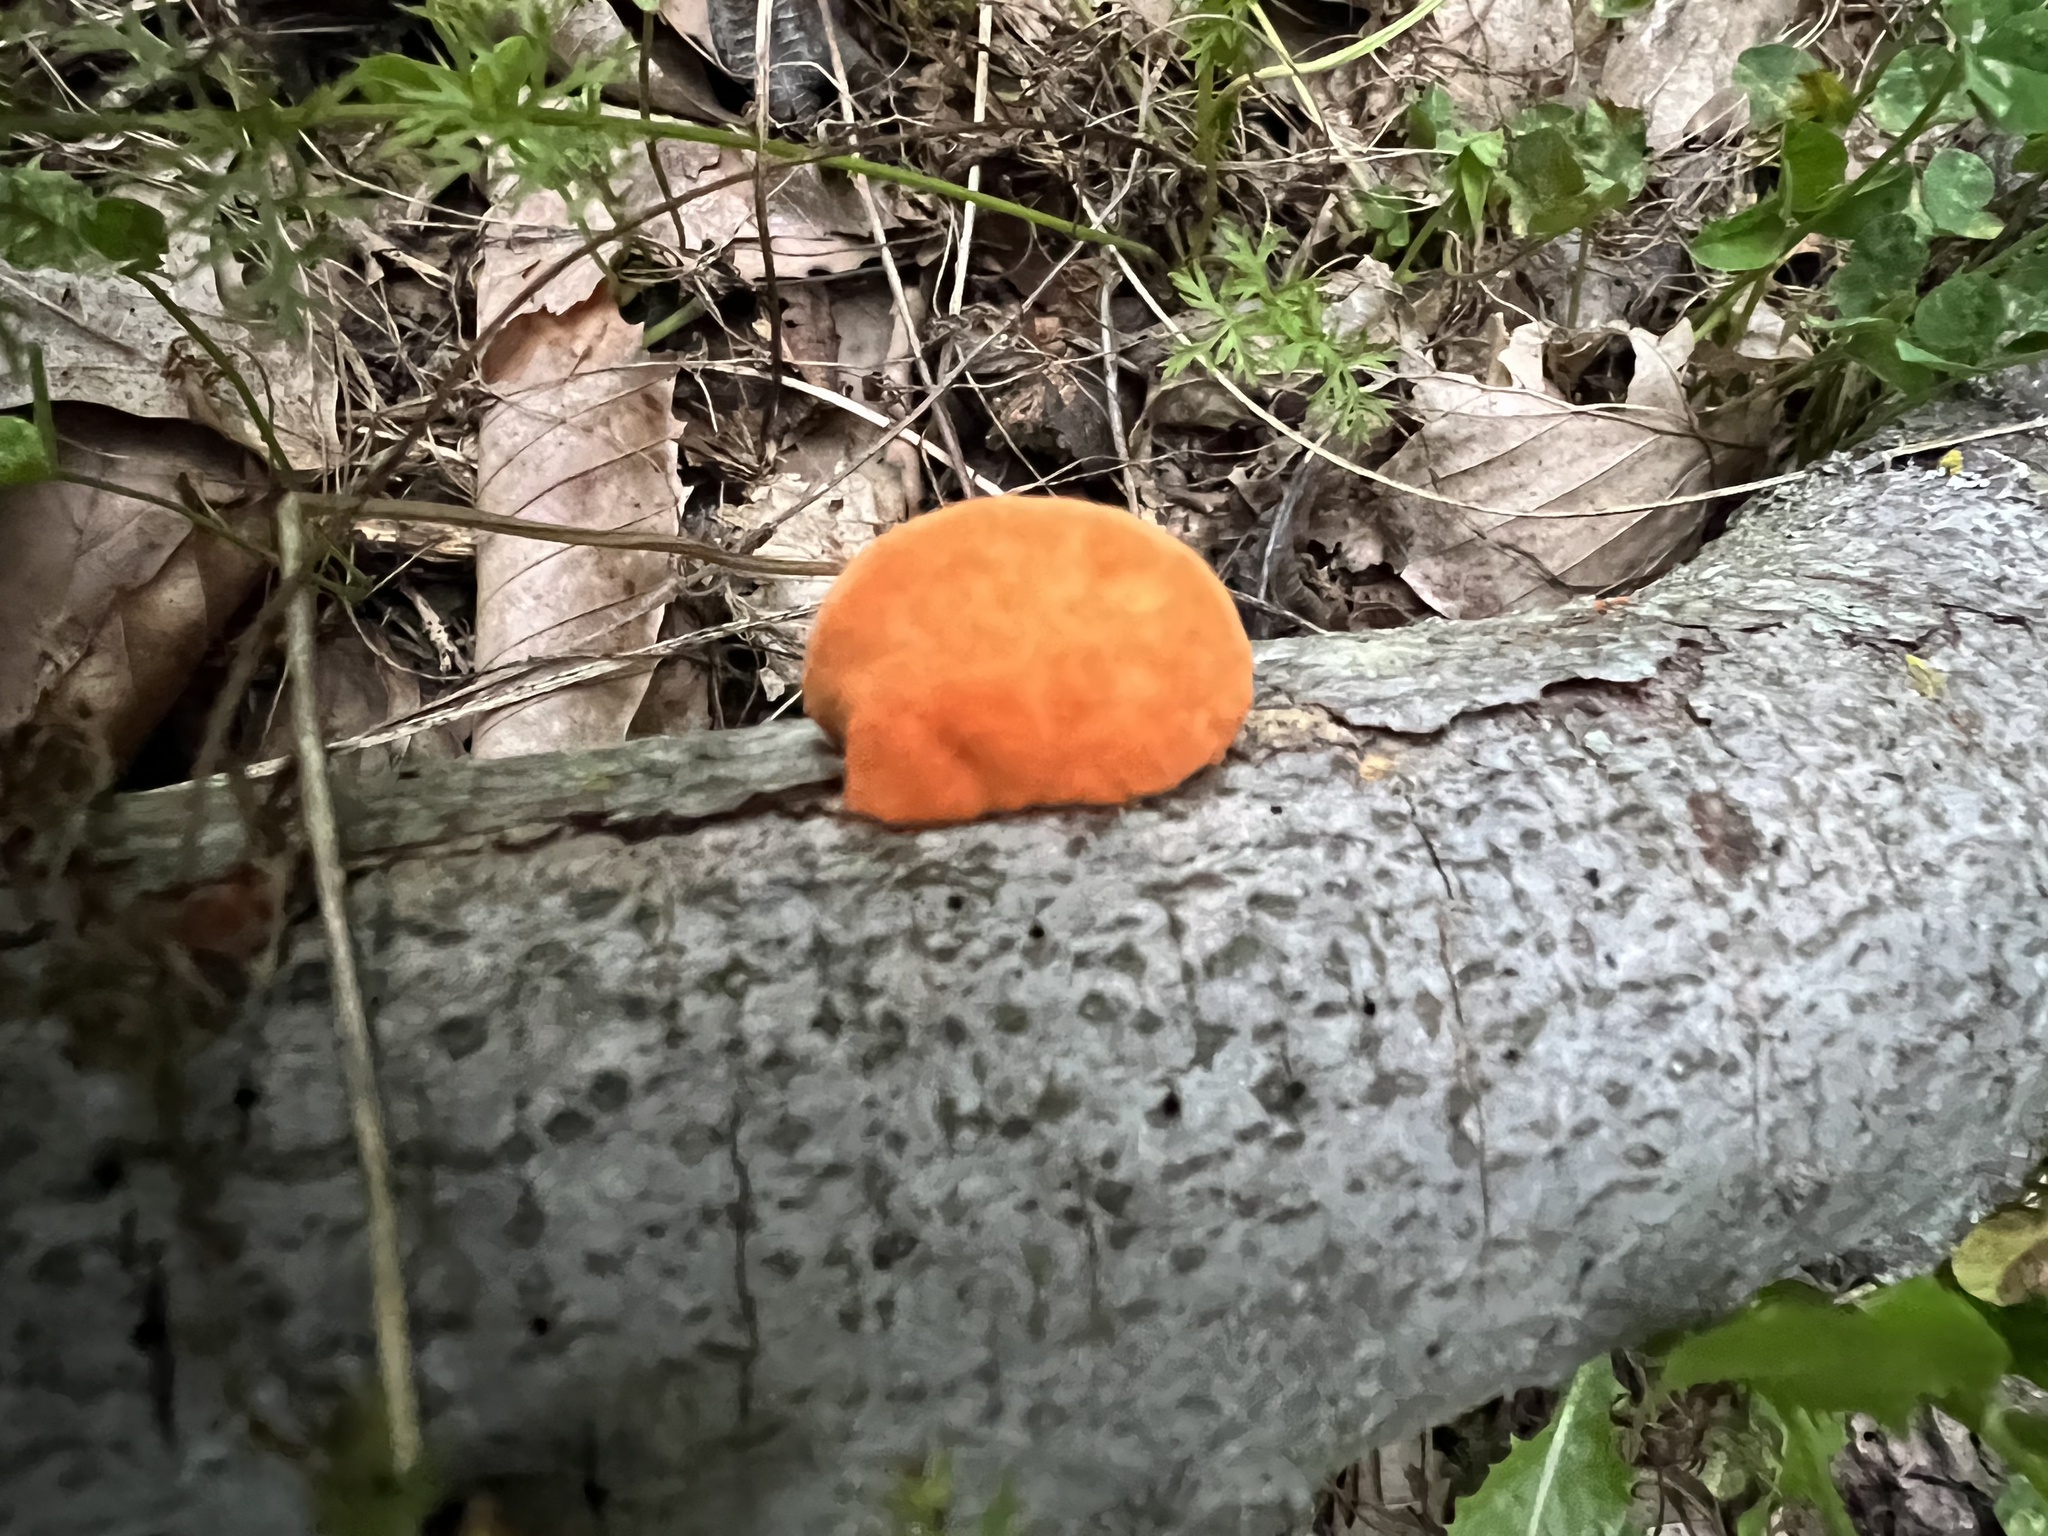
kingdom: Fungi
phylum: Basidiomycota
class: Agaricomycetes
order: Polyporales
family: Polyporaceae
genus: Trametes
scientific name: Trametes cinnabarina
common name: Northern cinnabar polypore
